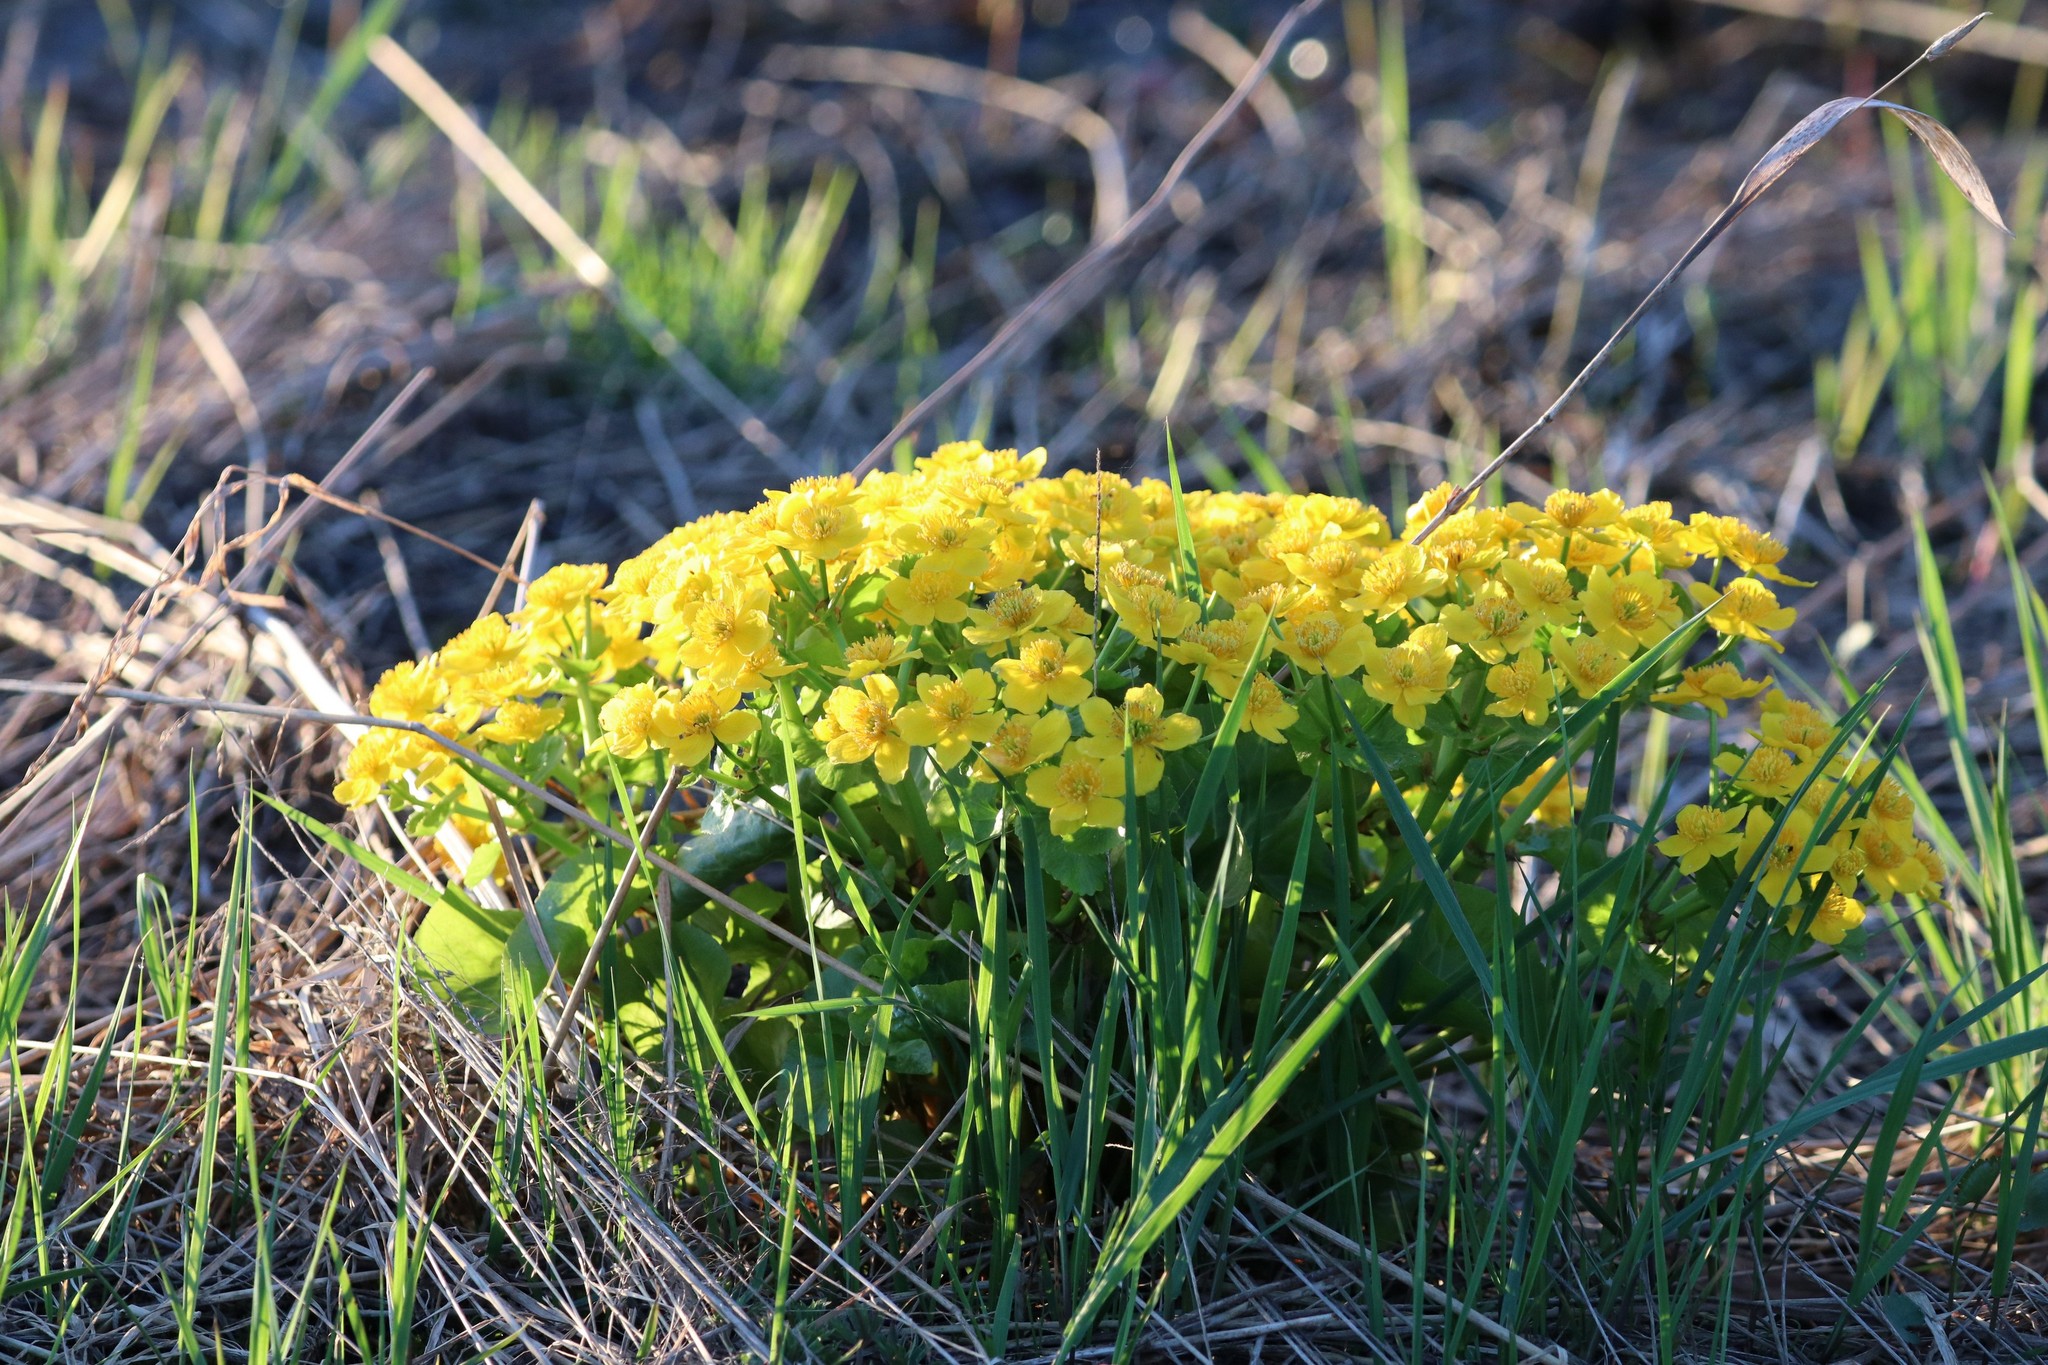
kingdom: Plantae
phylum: Tracheophyta
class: Magnoliopsida
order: Ranunculales
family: Ranunculaceae
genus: Caltha
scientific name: Caltha palustris
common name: Marsh marigold
